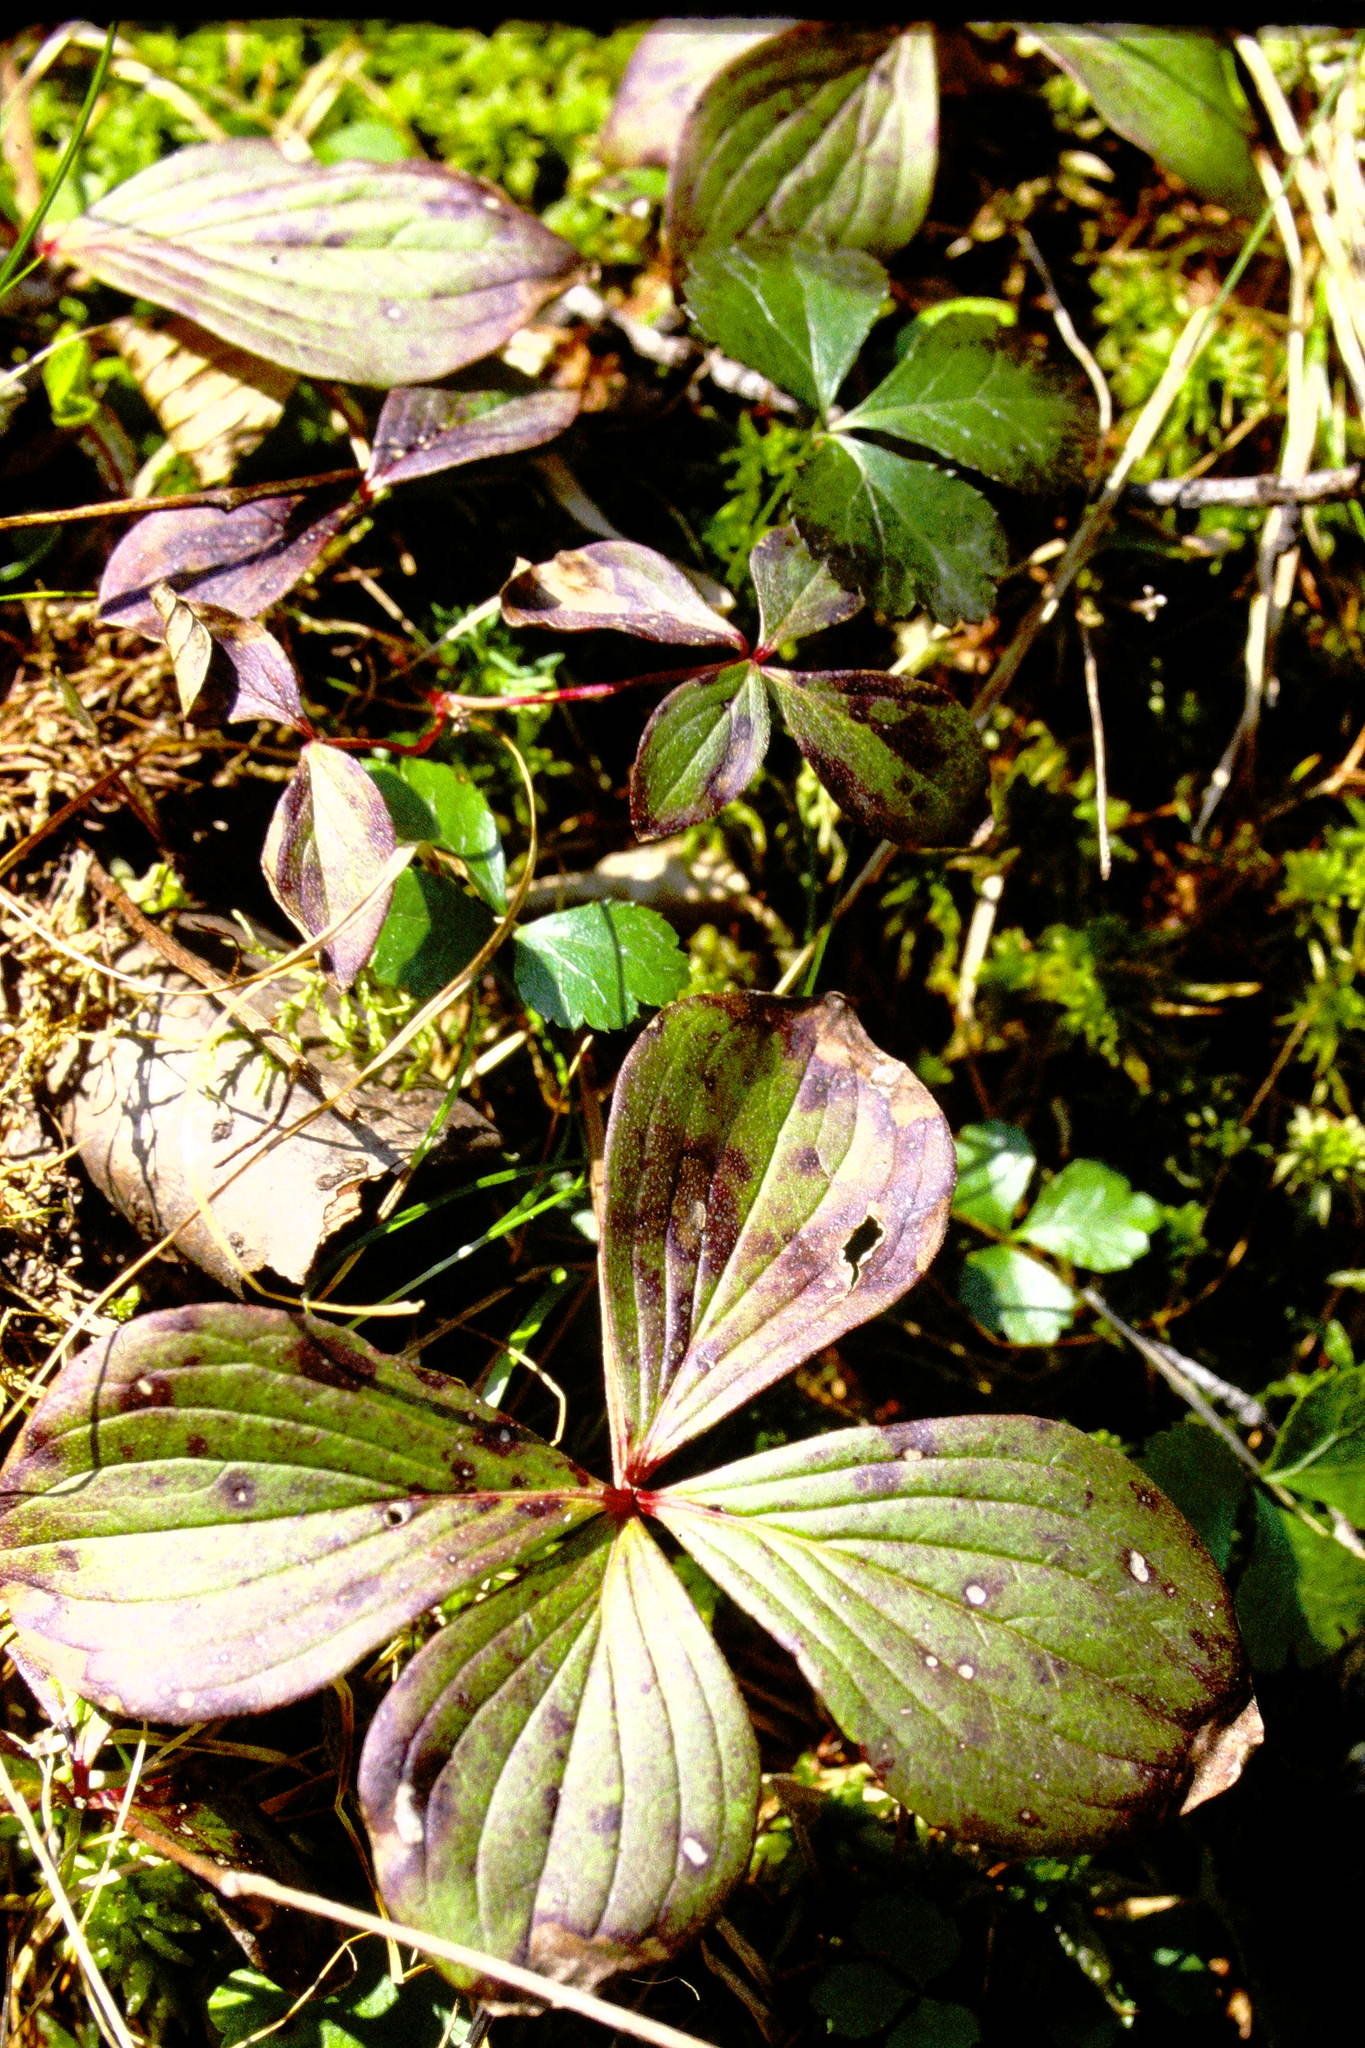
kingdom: Plantae
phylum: Tracheophyta
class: Magnoliopsida
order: Cornales
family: Cornaceae
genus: Cornus
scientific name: Cornus canadensis
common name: Creeping dogwood
